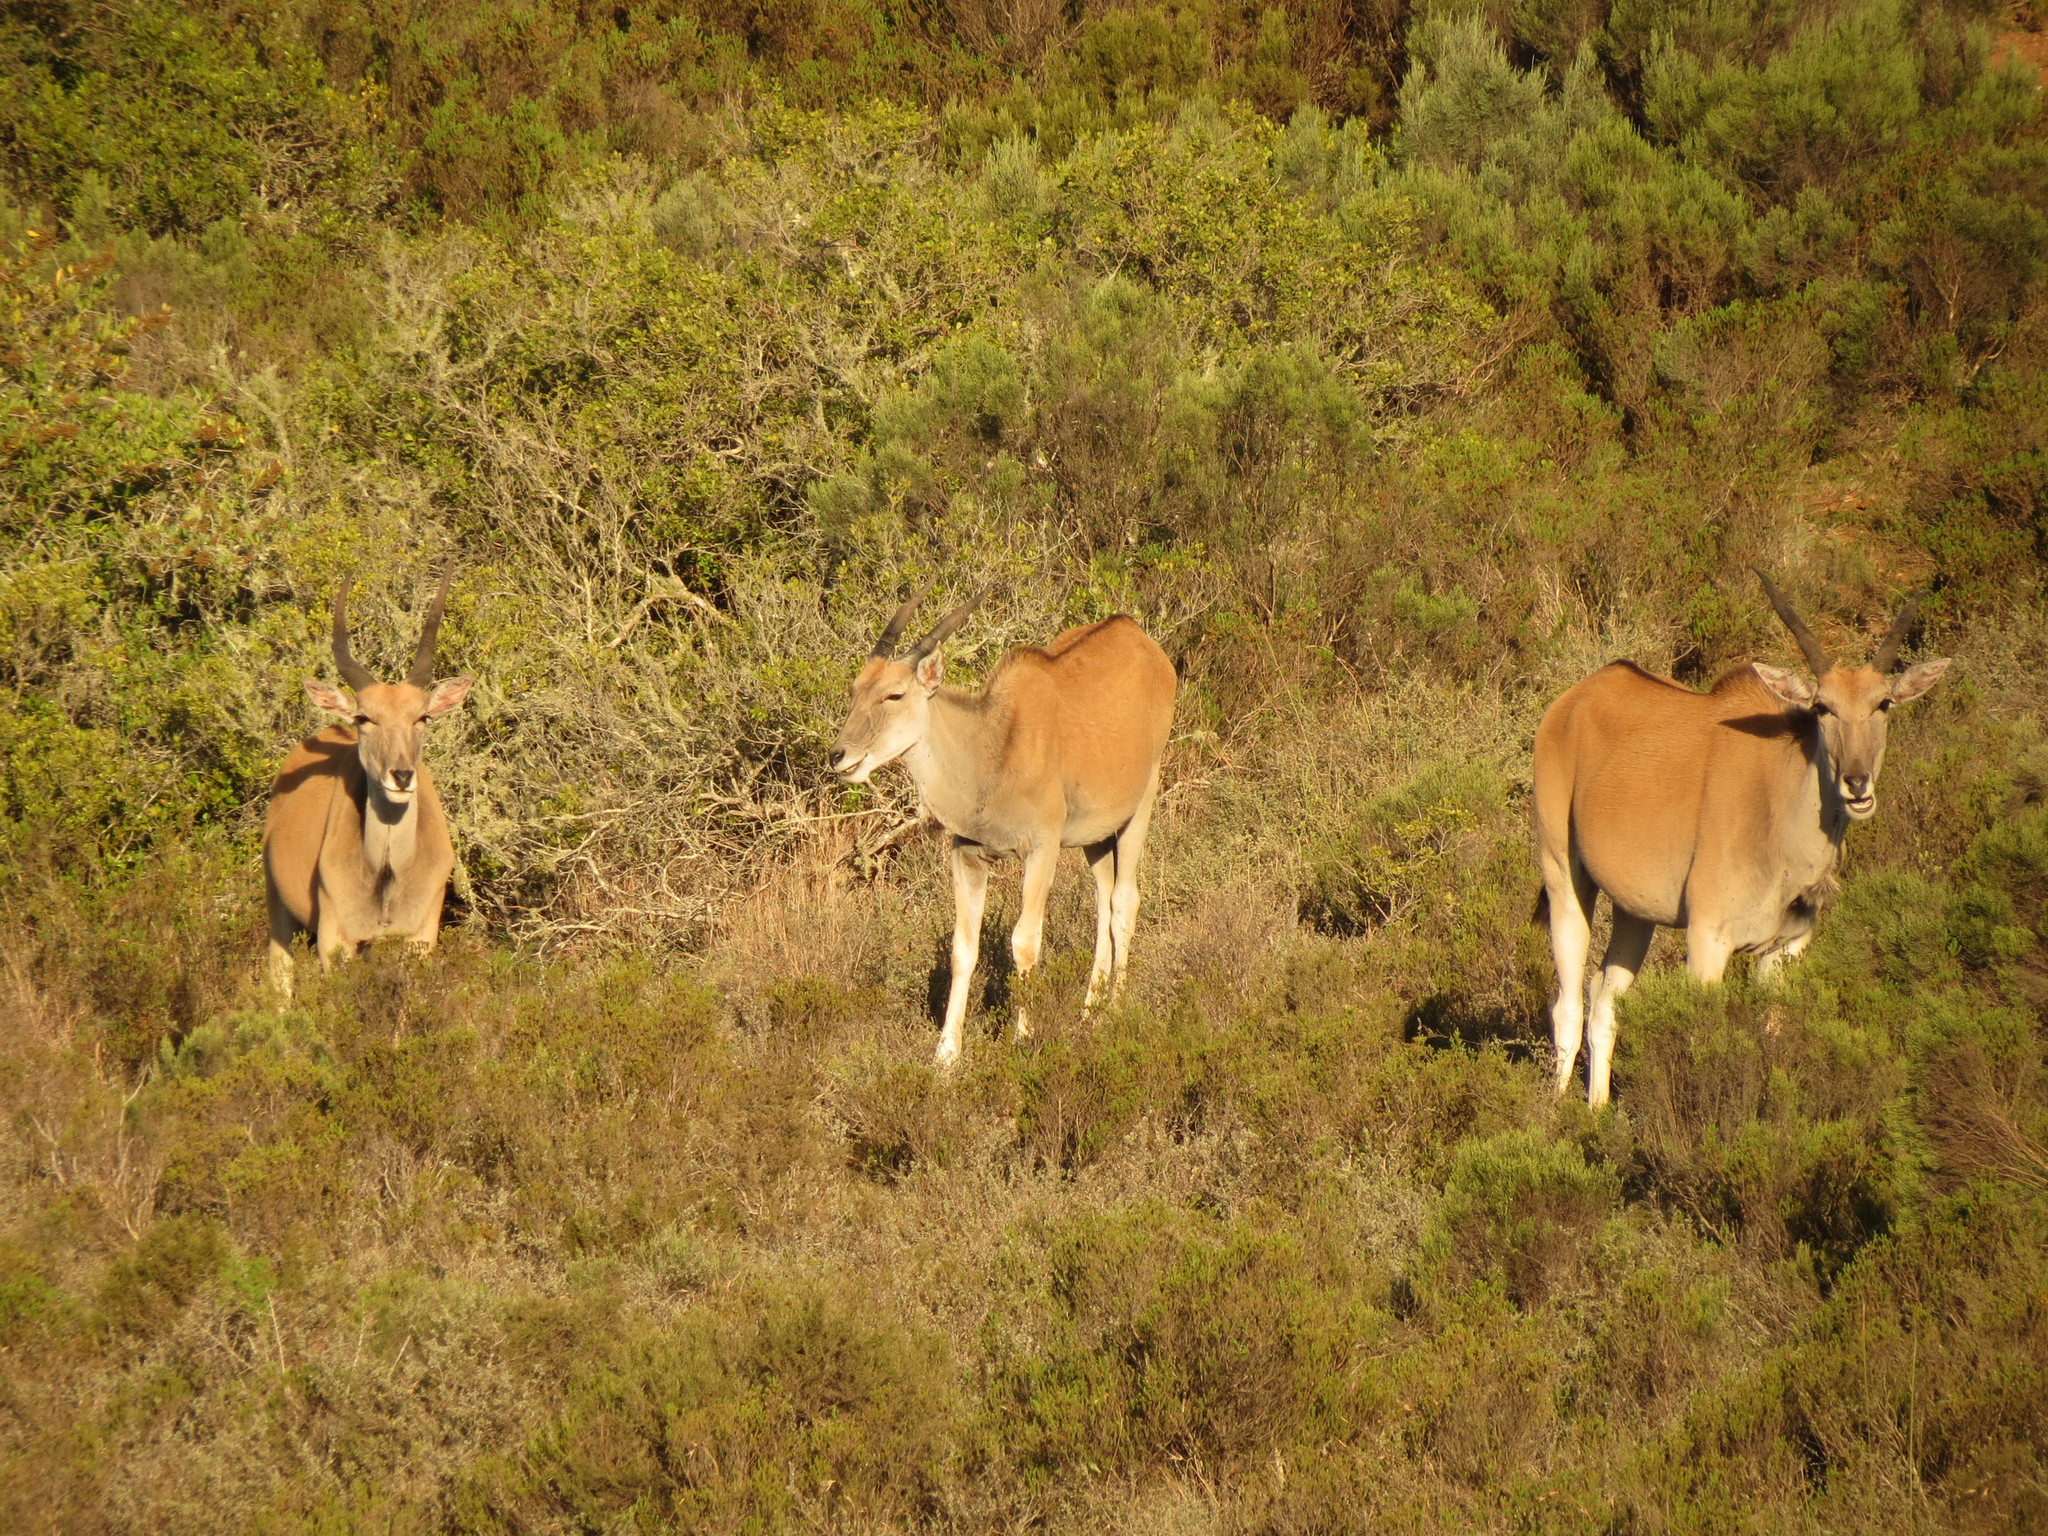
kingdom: Animalia
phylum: Chordata
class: Mammalia
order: Artiodactyla
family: Bovidae
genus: Taurotragus
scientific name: Taurotragus oryx
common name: Common eland
